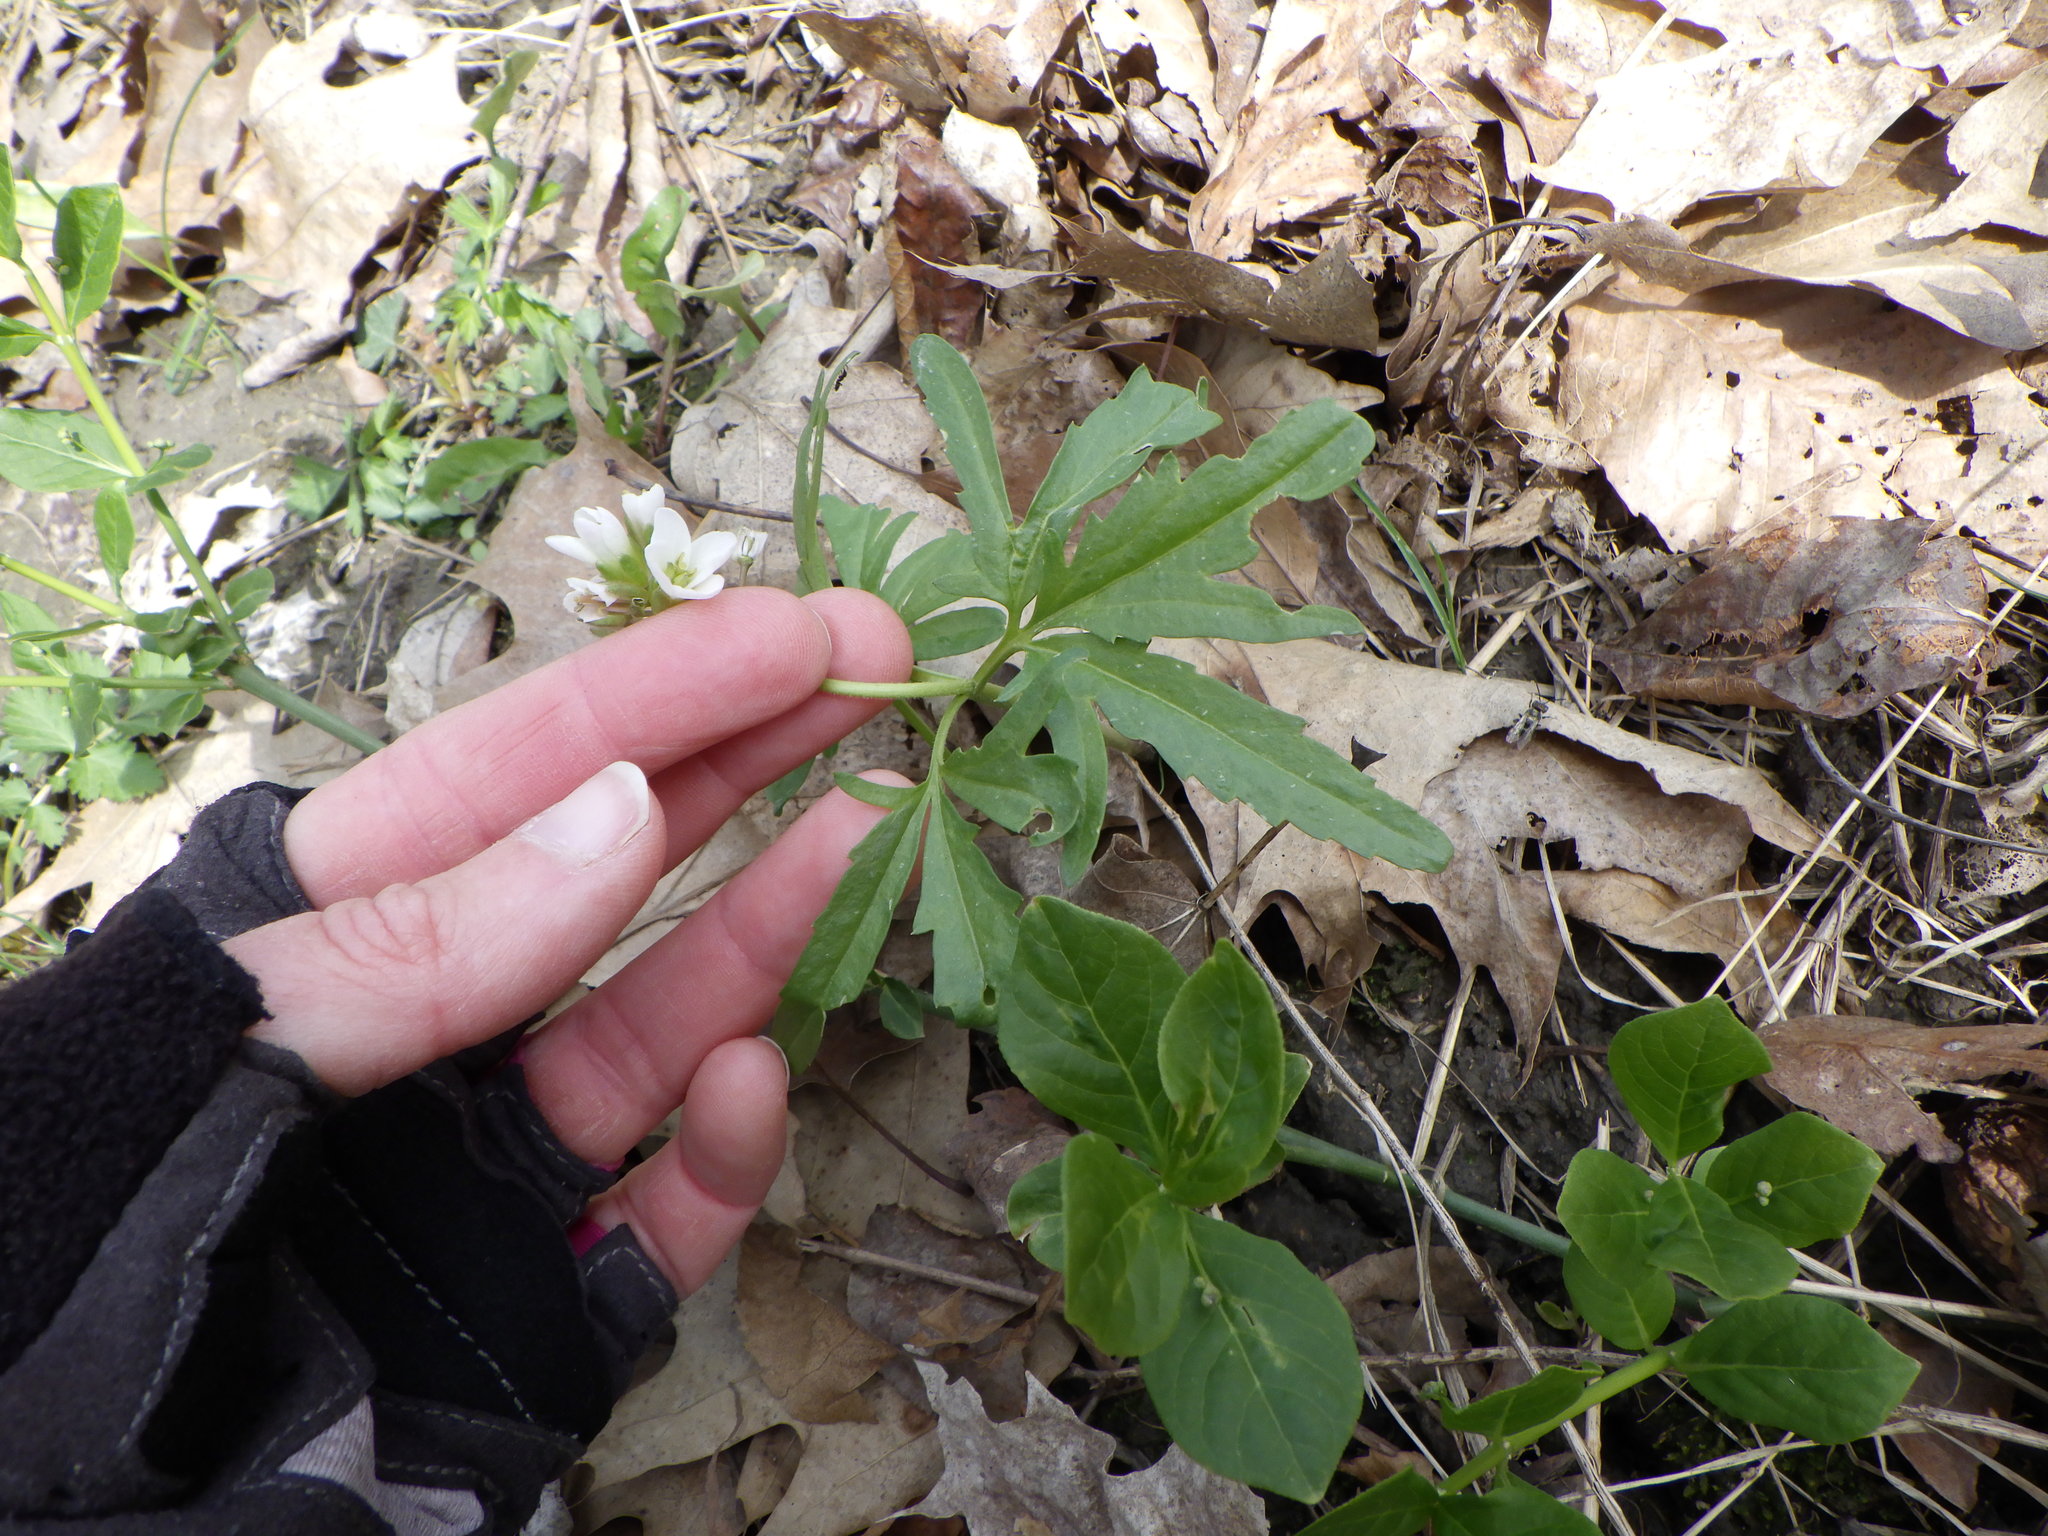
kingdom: Plantae
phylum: Tracheophyta
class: Magnoliopsida
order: Brassicales
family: Brassicaceae
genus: Cardamine
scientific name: Cardamine concatenata
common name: Cut-leaf toothcup
